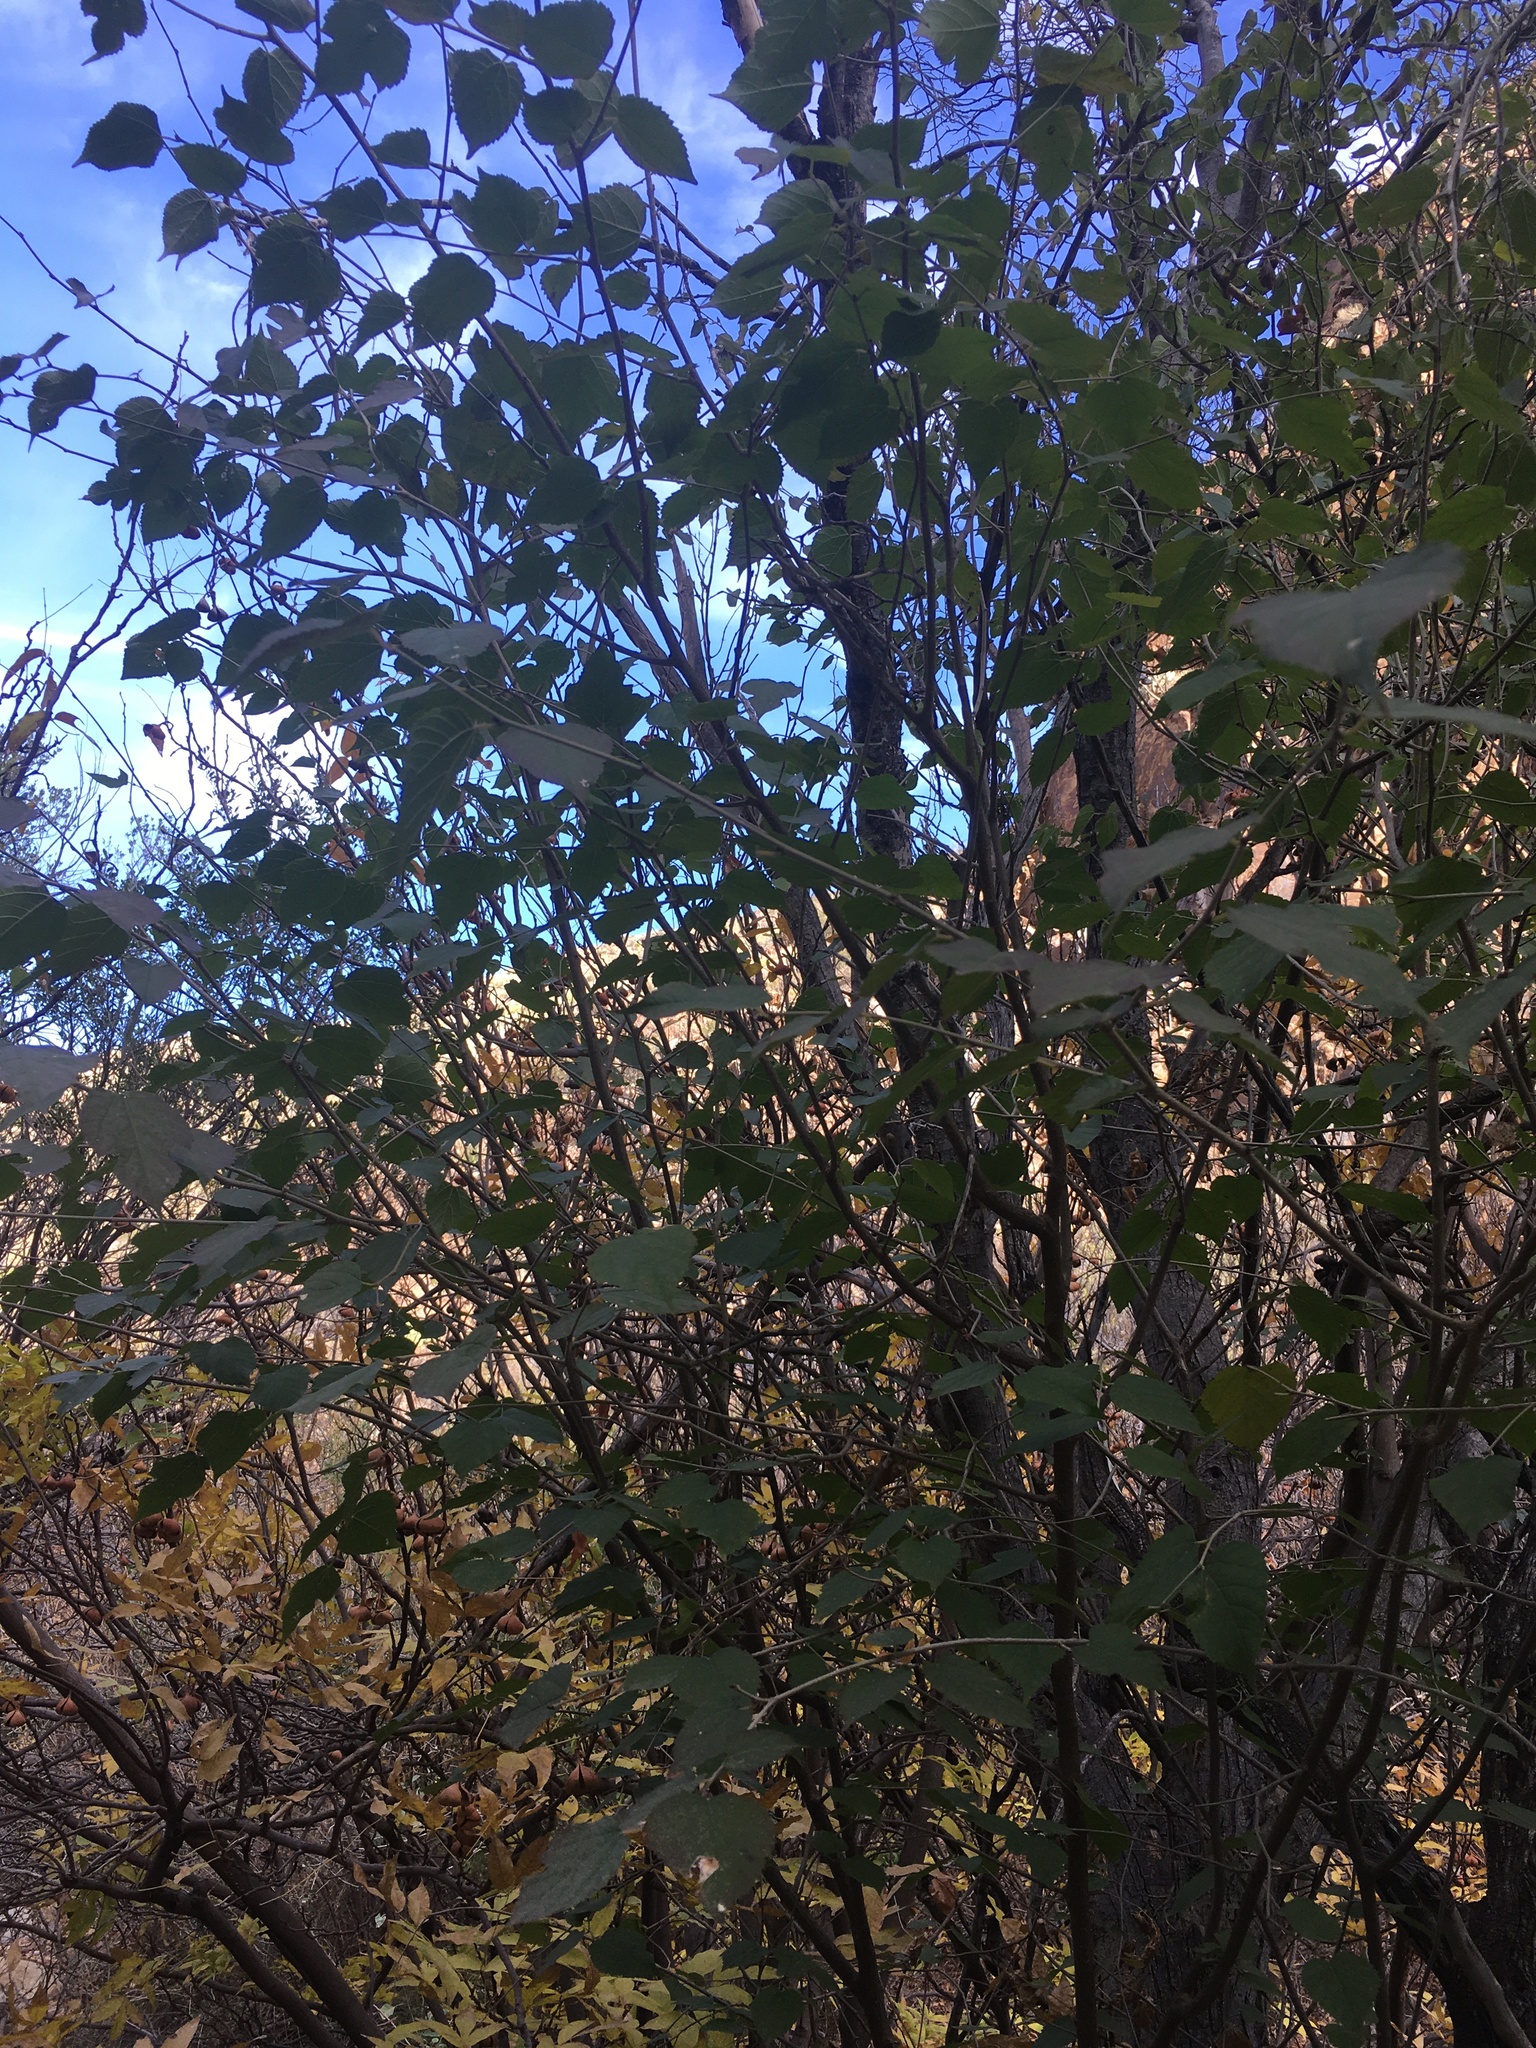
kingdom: Plantae
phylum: Tracheophyta
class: Magnoliopsida
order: Rosales
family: Moraceae
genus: Morus
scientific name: Morus microphylla
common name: Mexican mulberry
